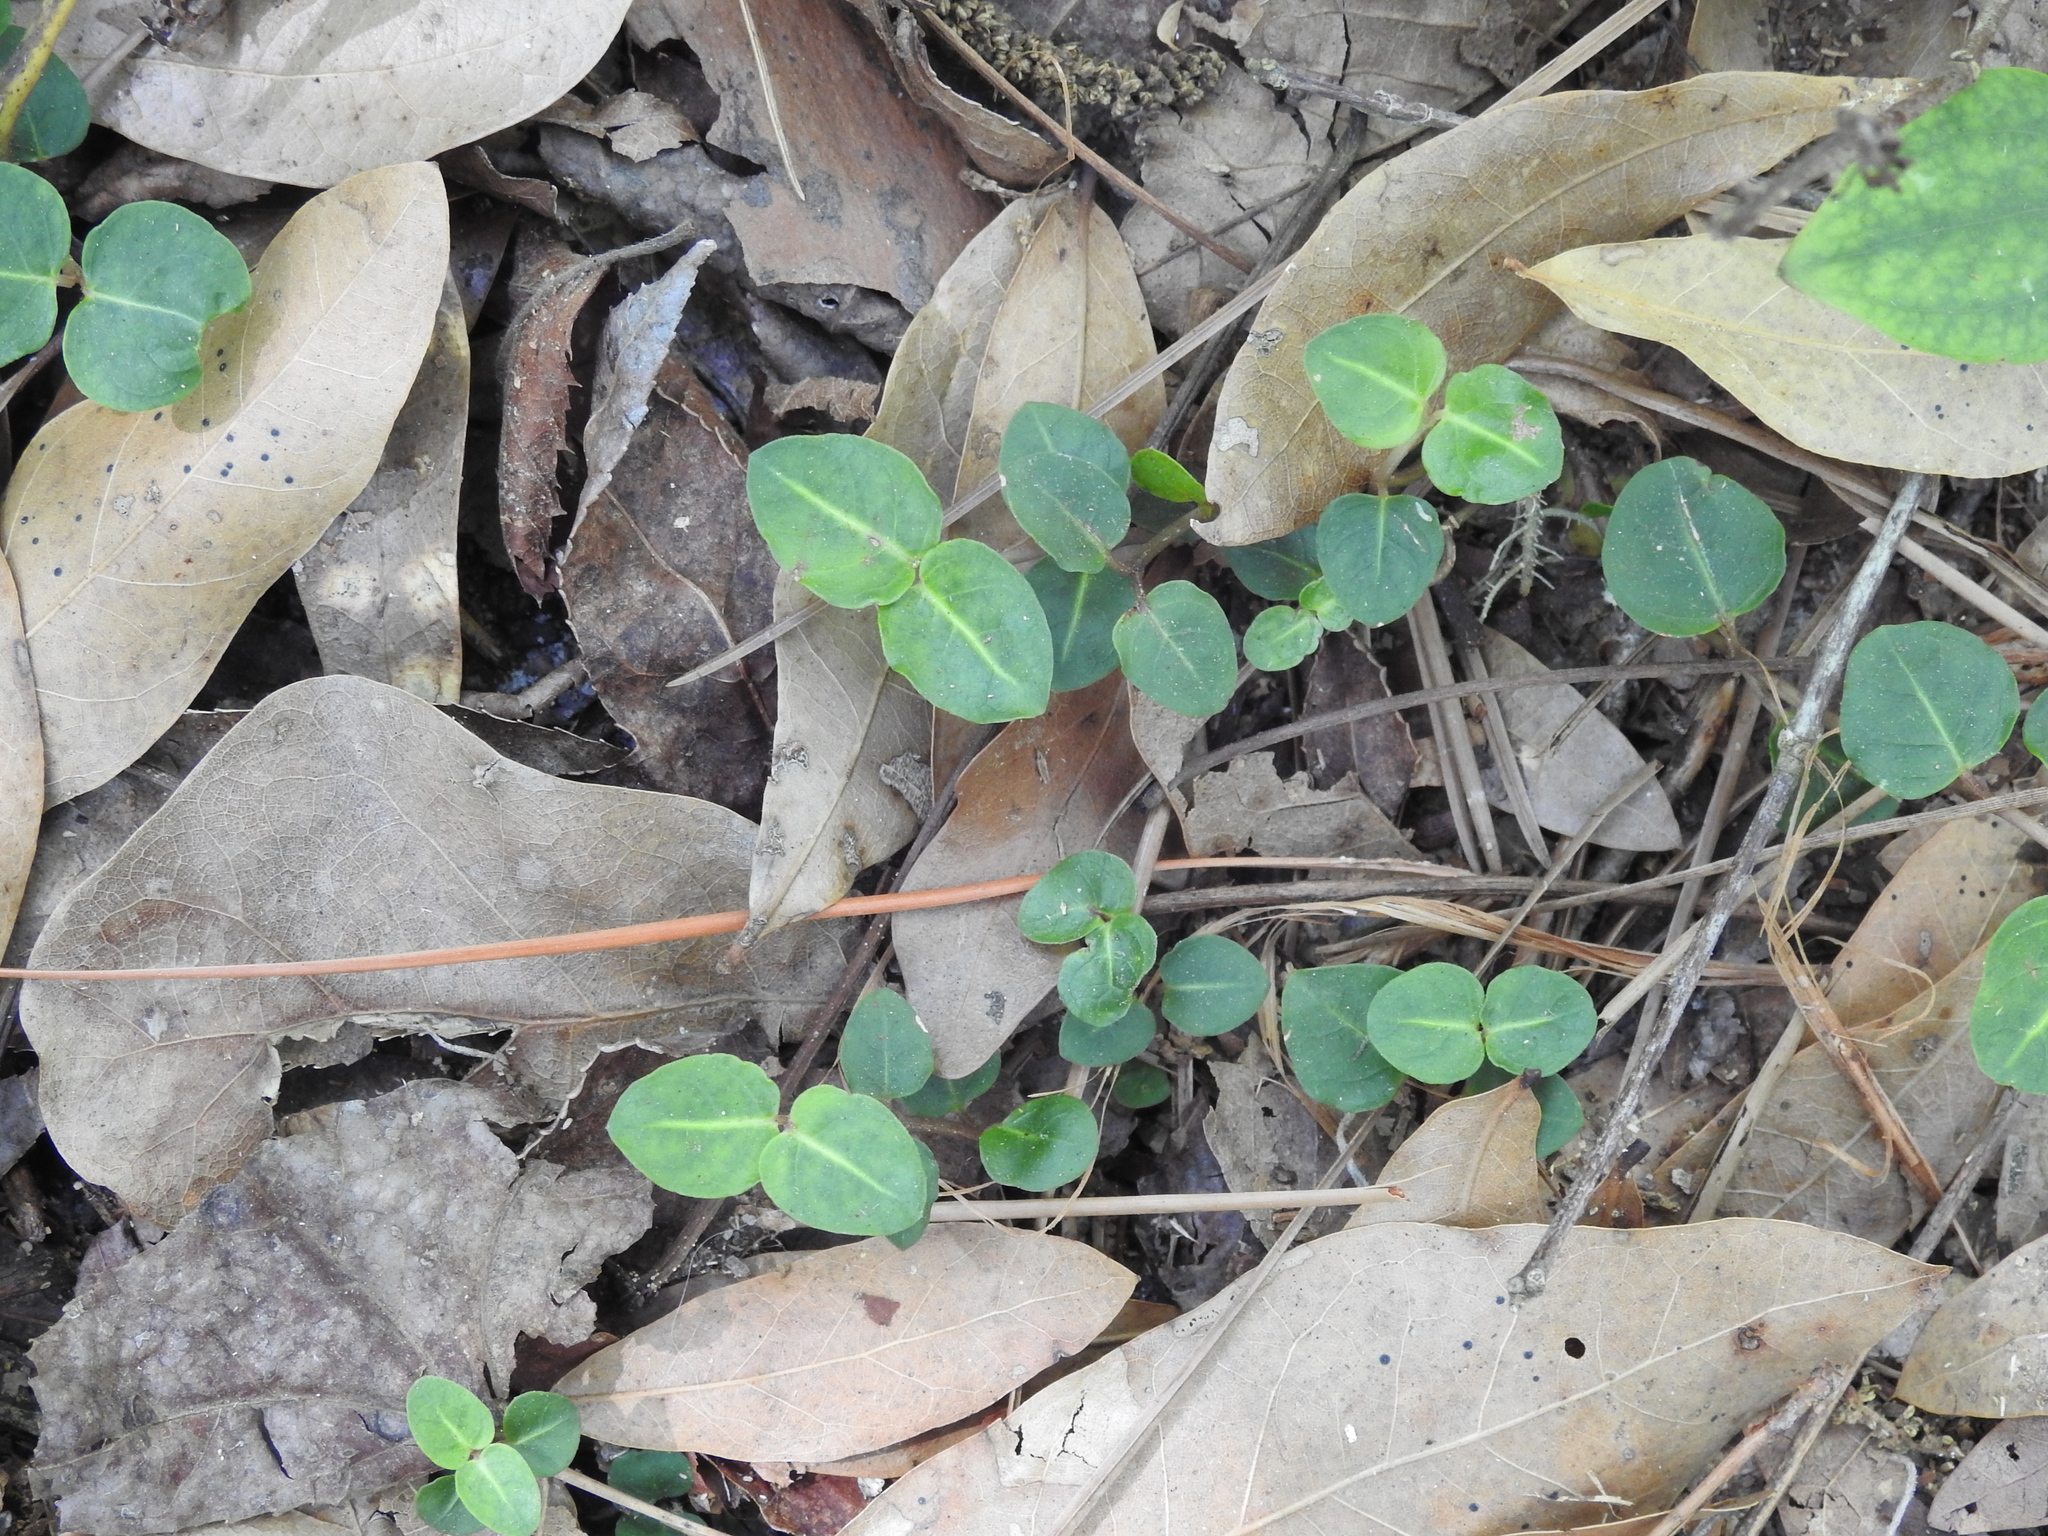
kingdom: Plantae
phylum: Tracheophyta
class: Magnoliopsida
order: Gentianales
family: Rubiaceae
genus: Mitchella
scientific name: Mitchella repens
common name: Partridge-berry
